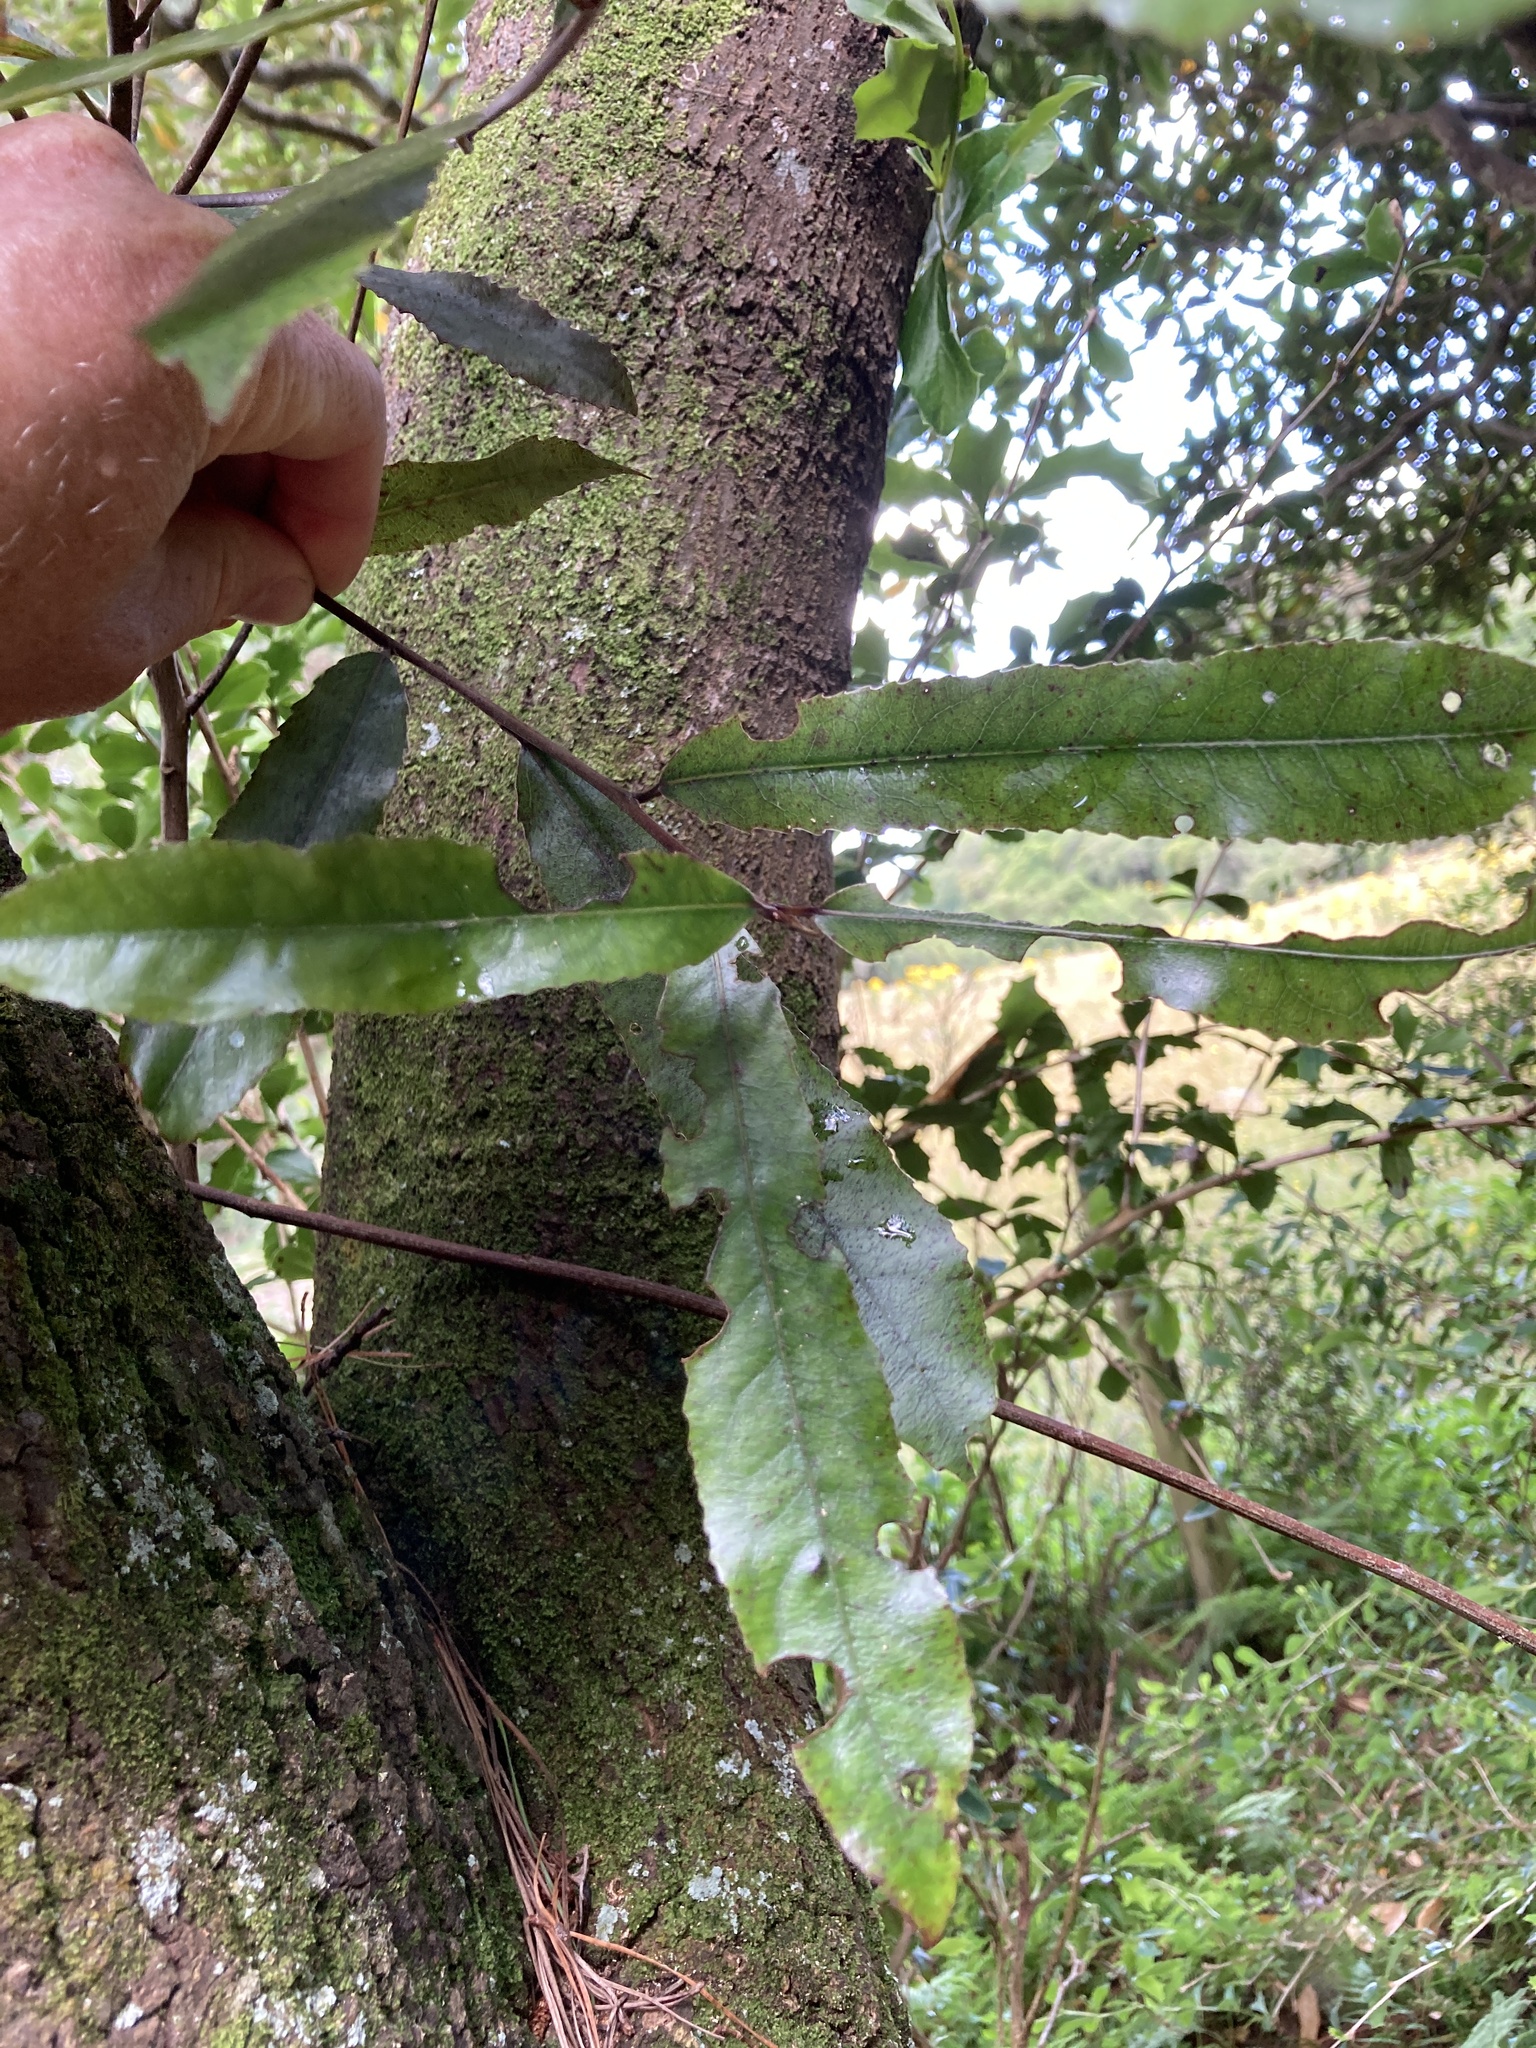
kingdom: Plantae
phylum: Tracheophyta
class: Magnoliopsida
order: Oxalidales
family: Elaeocarpaceae
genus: Elaeocarpus
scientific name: Elaeocarpus dentatus
